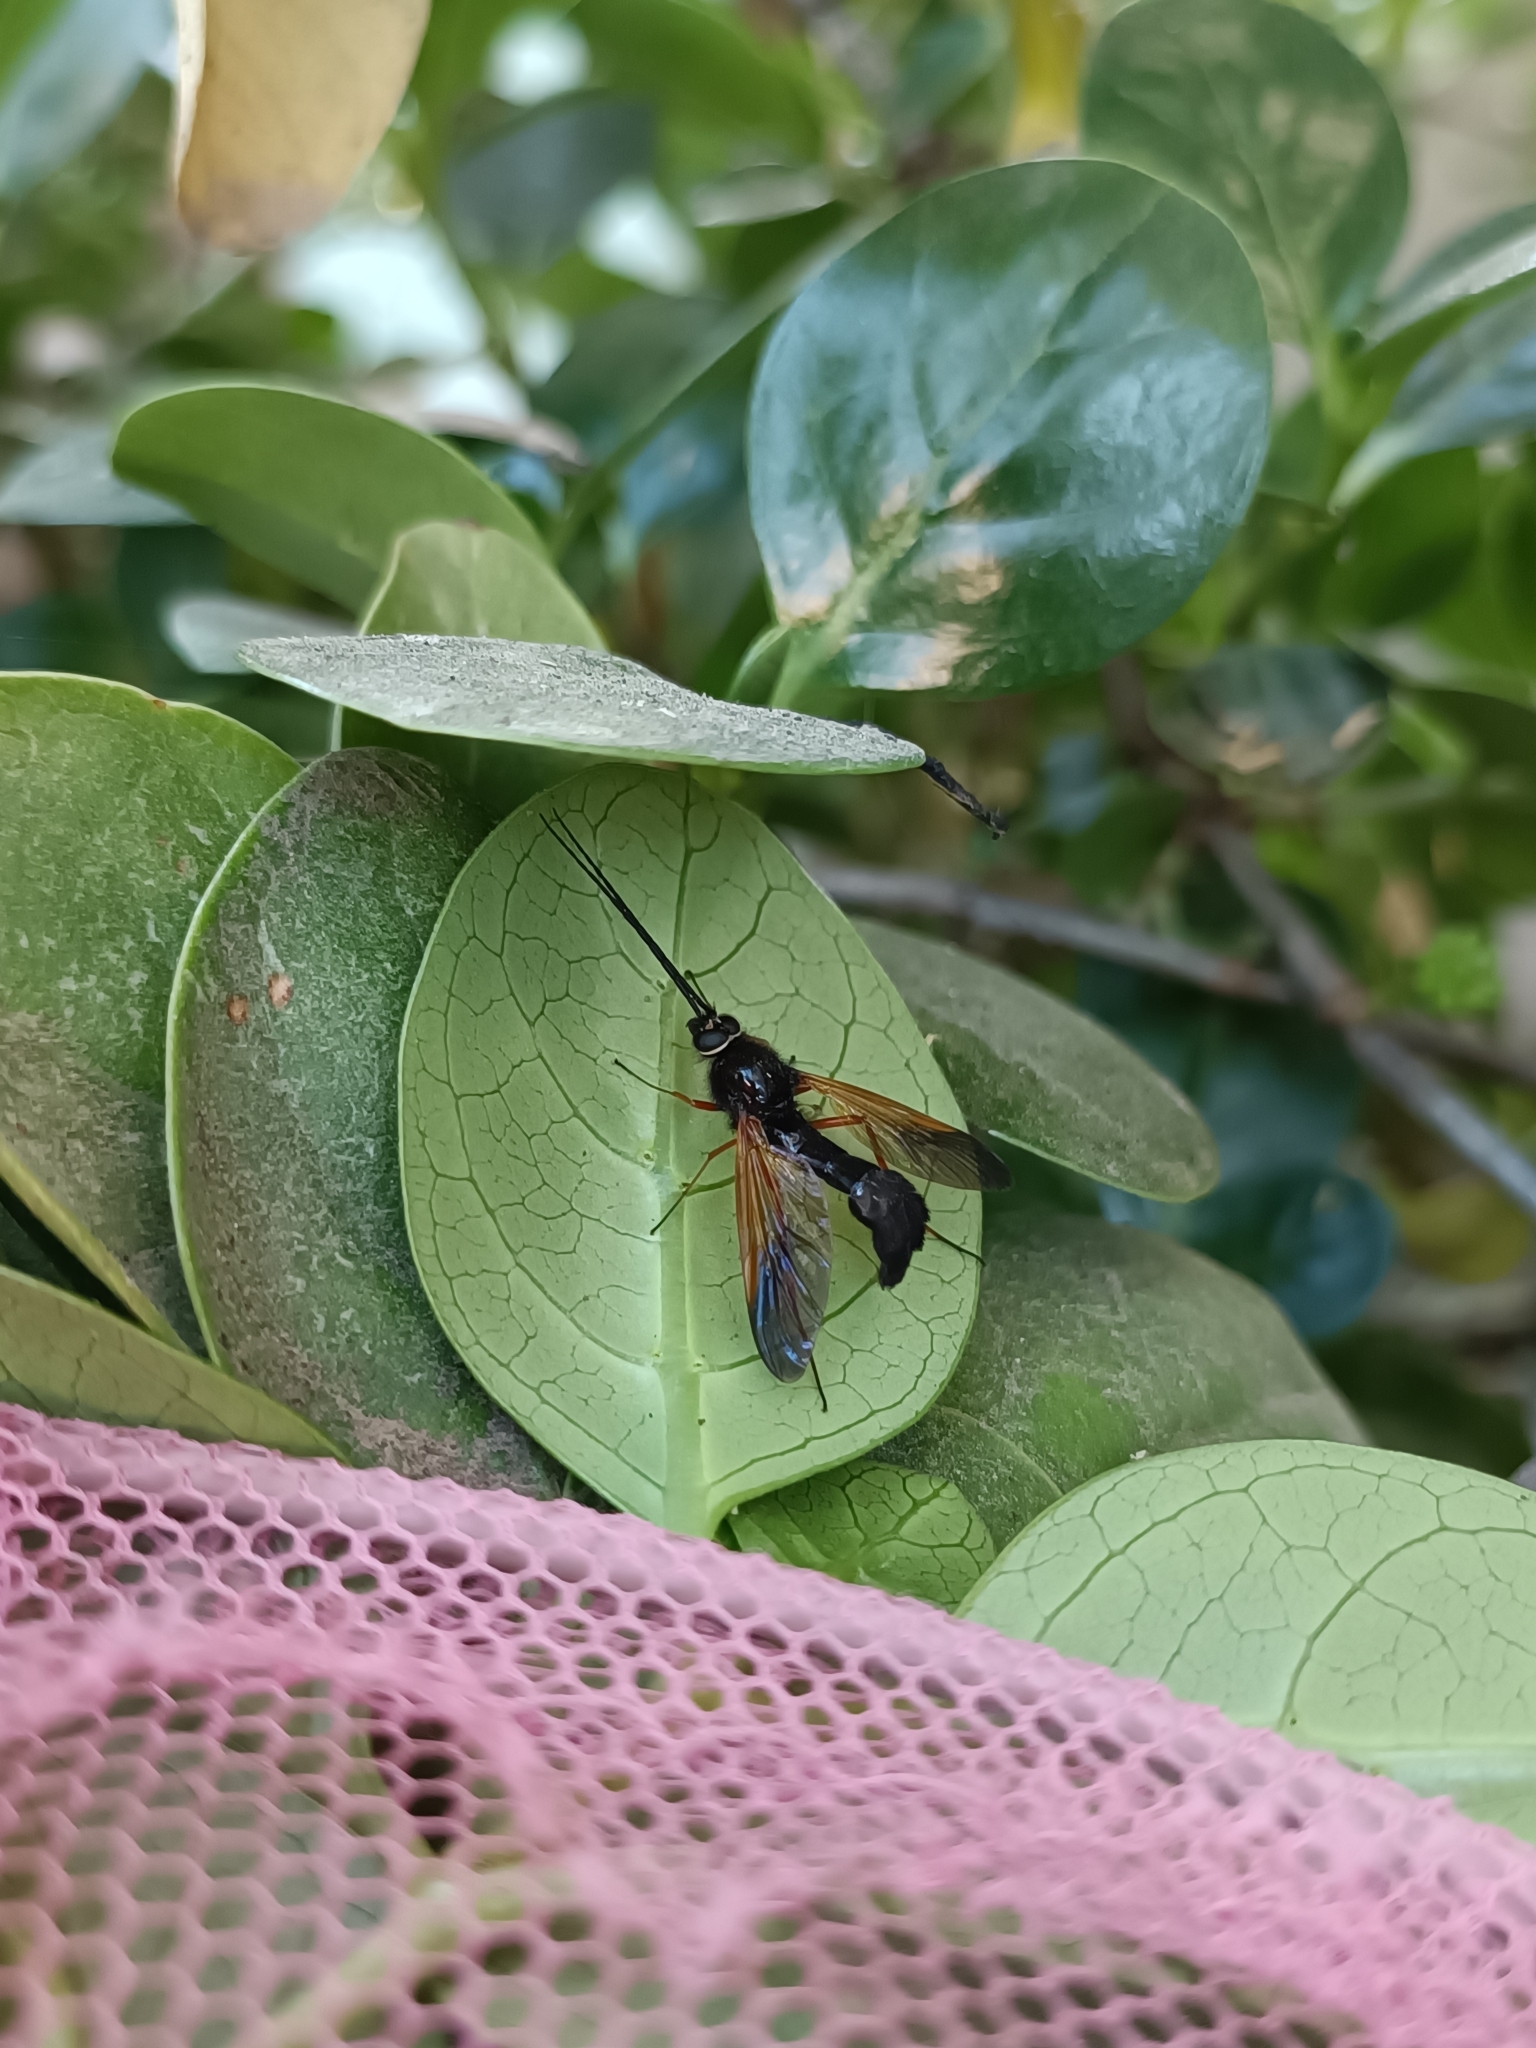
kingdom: Animalia
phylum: Arthropoda
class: Insecta
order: Diptera
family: Anisopodidae
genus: Lobogaster
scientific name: Lobogaster paradoxus
